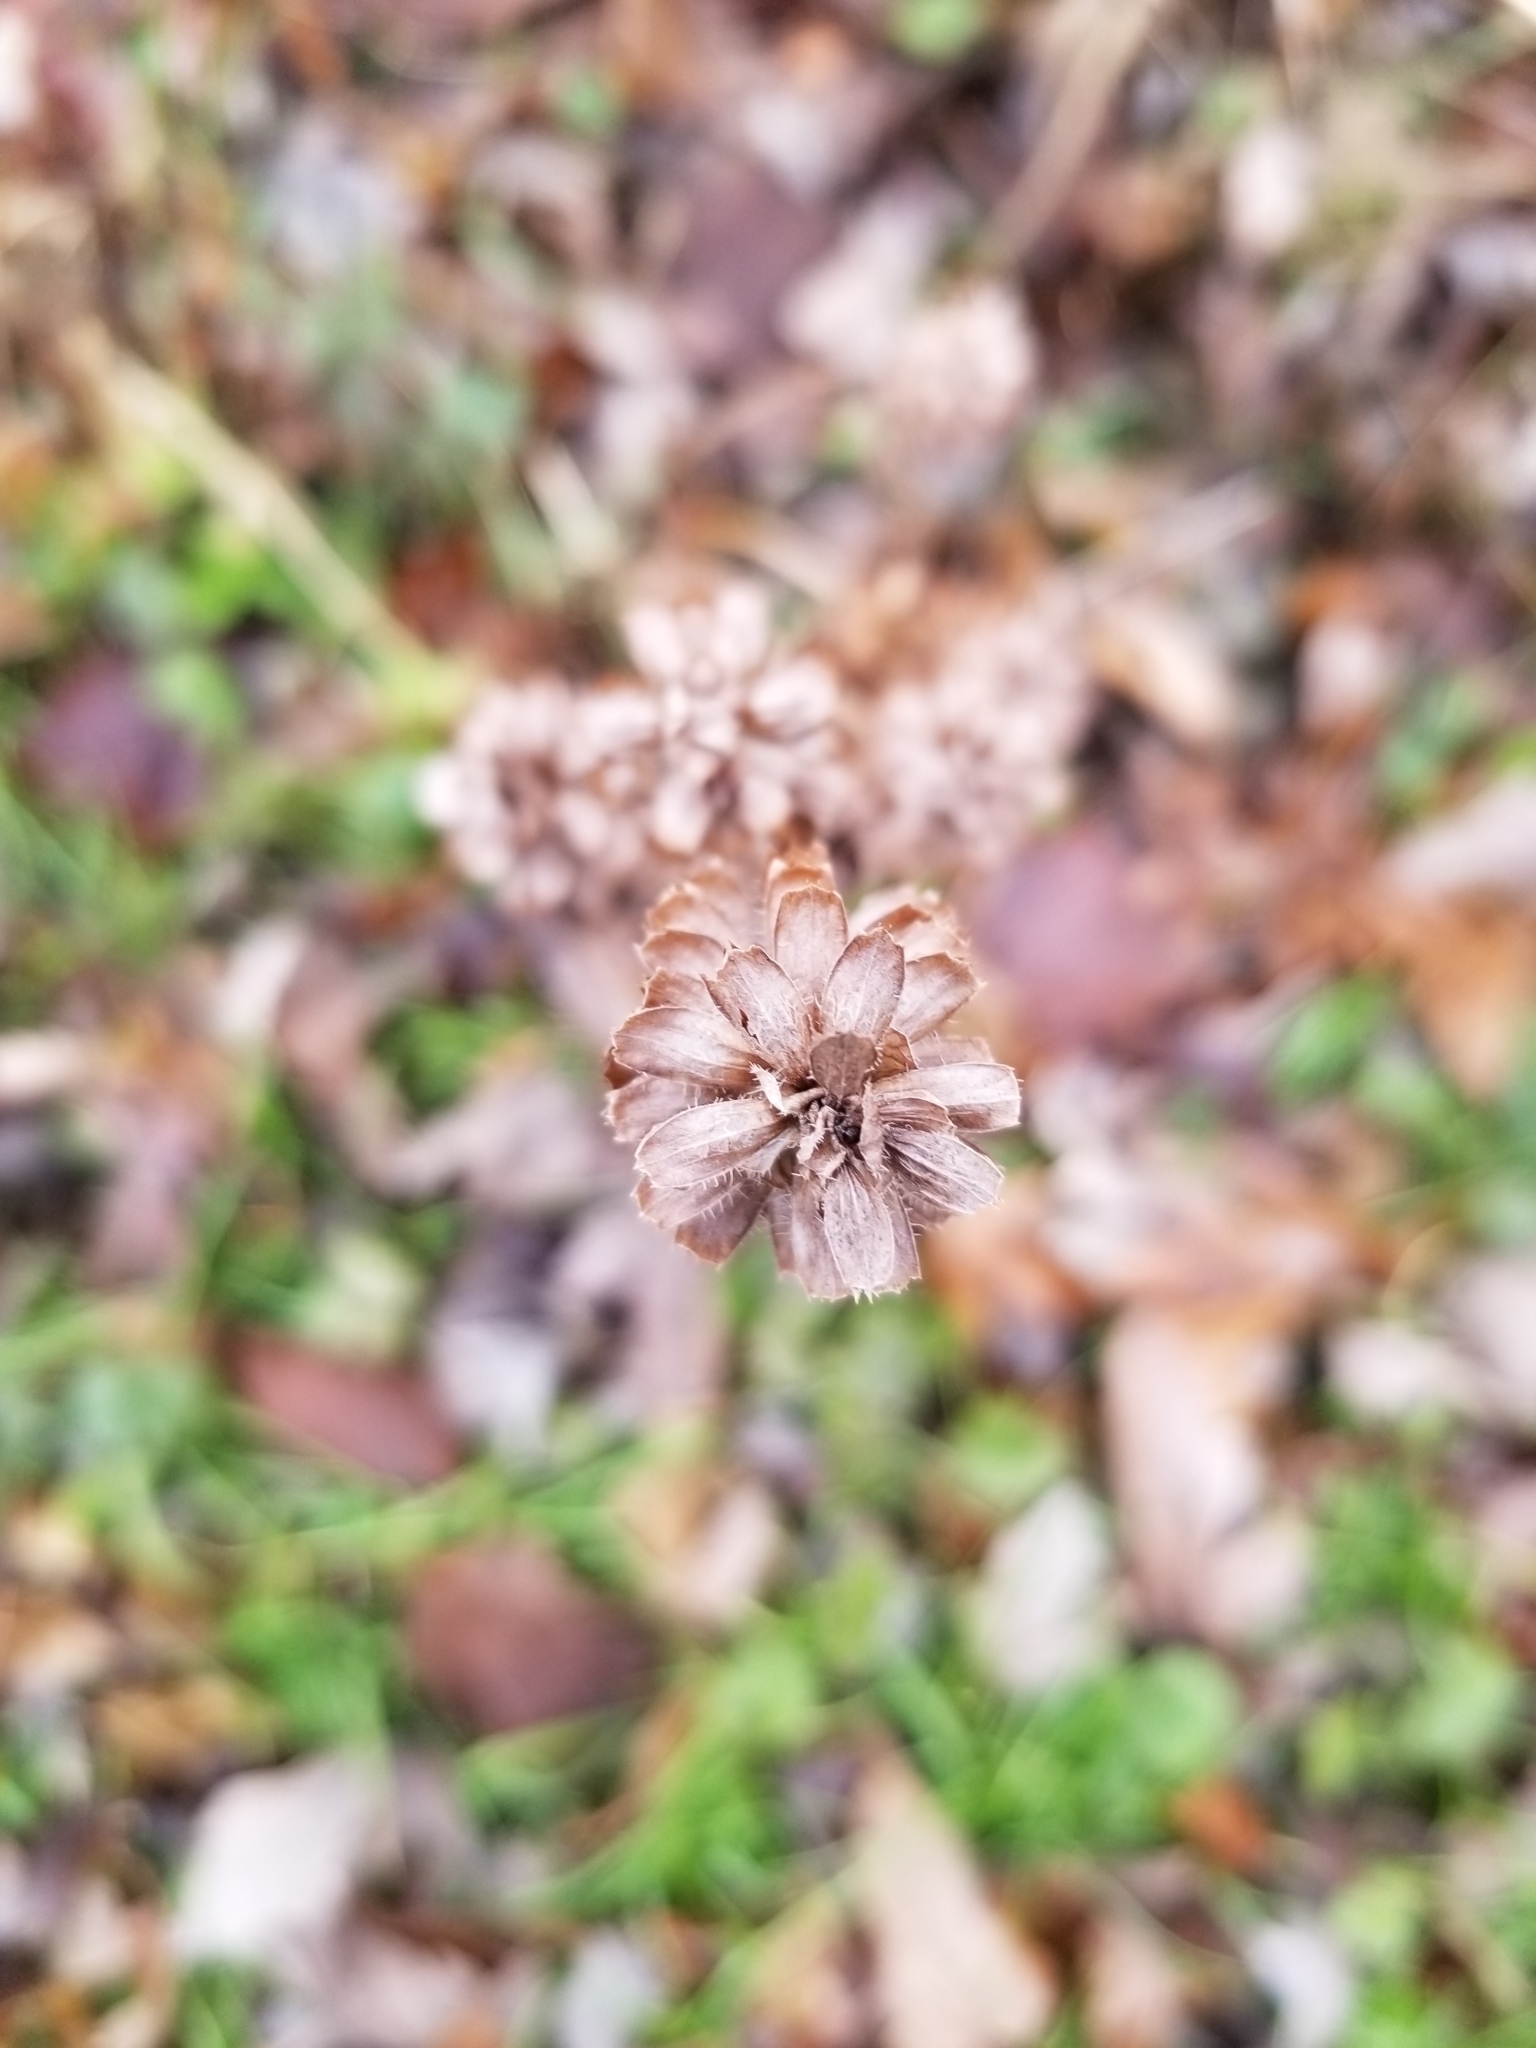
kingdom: Plantae
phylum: Tracheophyta
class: Magnoliopsida
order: Lamiales
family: Lamiaceae
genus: Prunella
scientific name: Prunella vulgaris
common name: Heal-all
